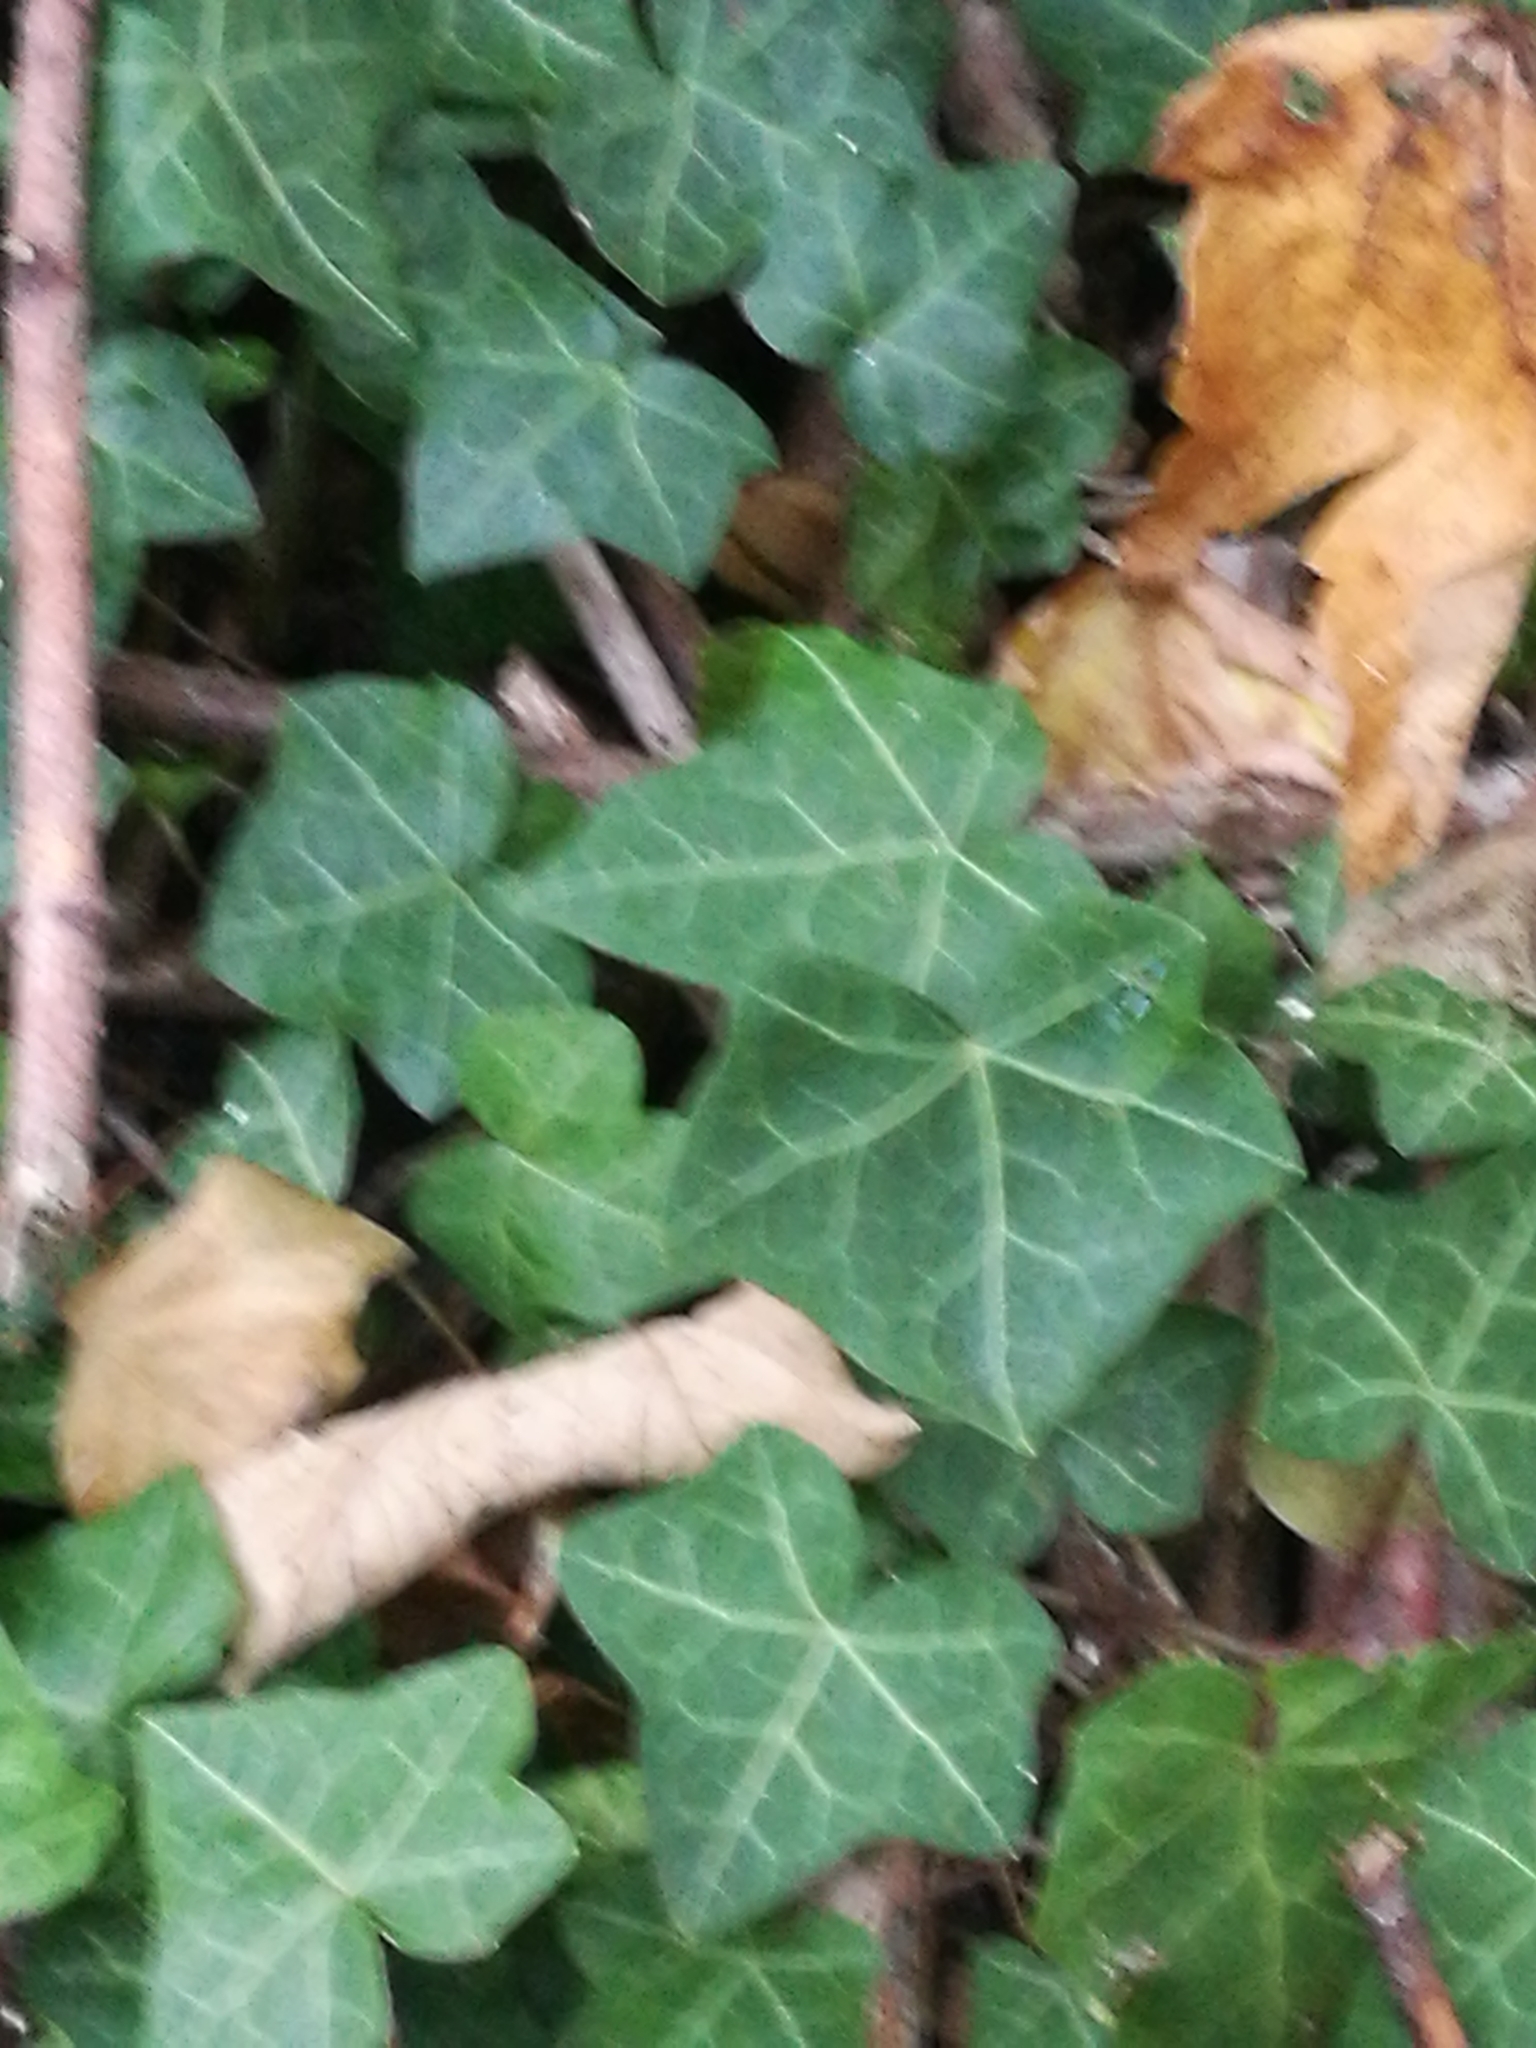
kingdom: Plantae
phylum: Tracheophyta
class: Magnoliopsida
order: Apiales
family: Araliaceae
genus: Hedera
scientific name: Hedera helix
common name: Ivy
